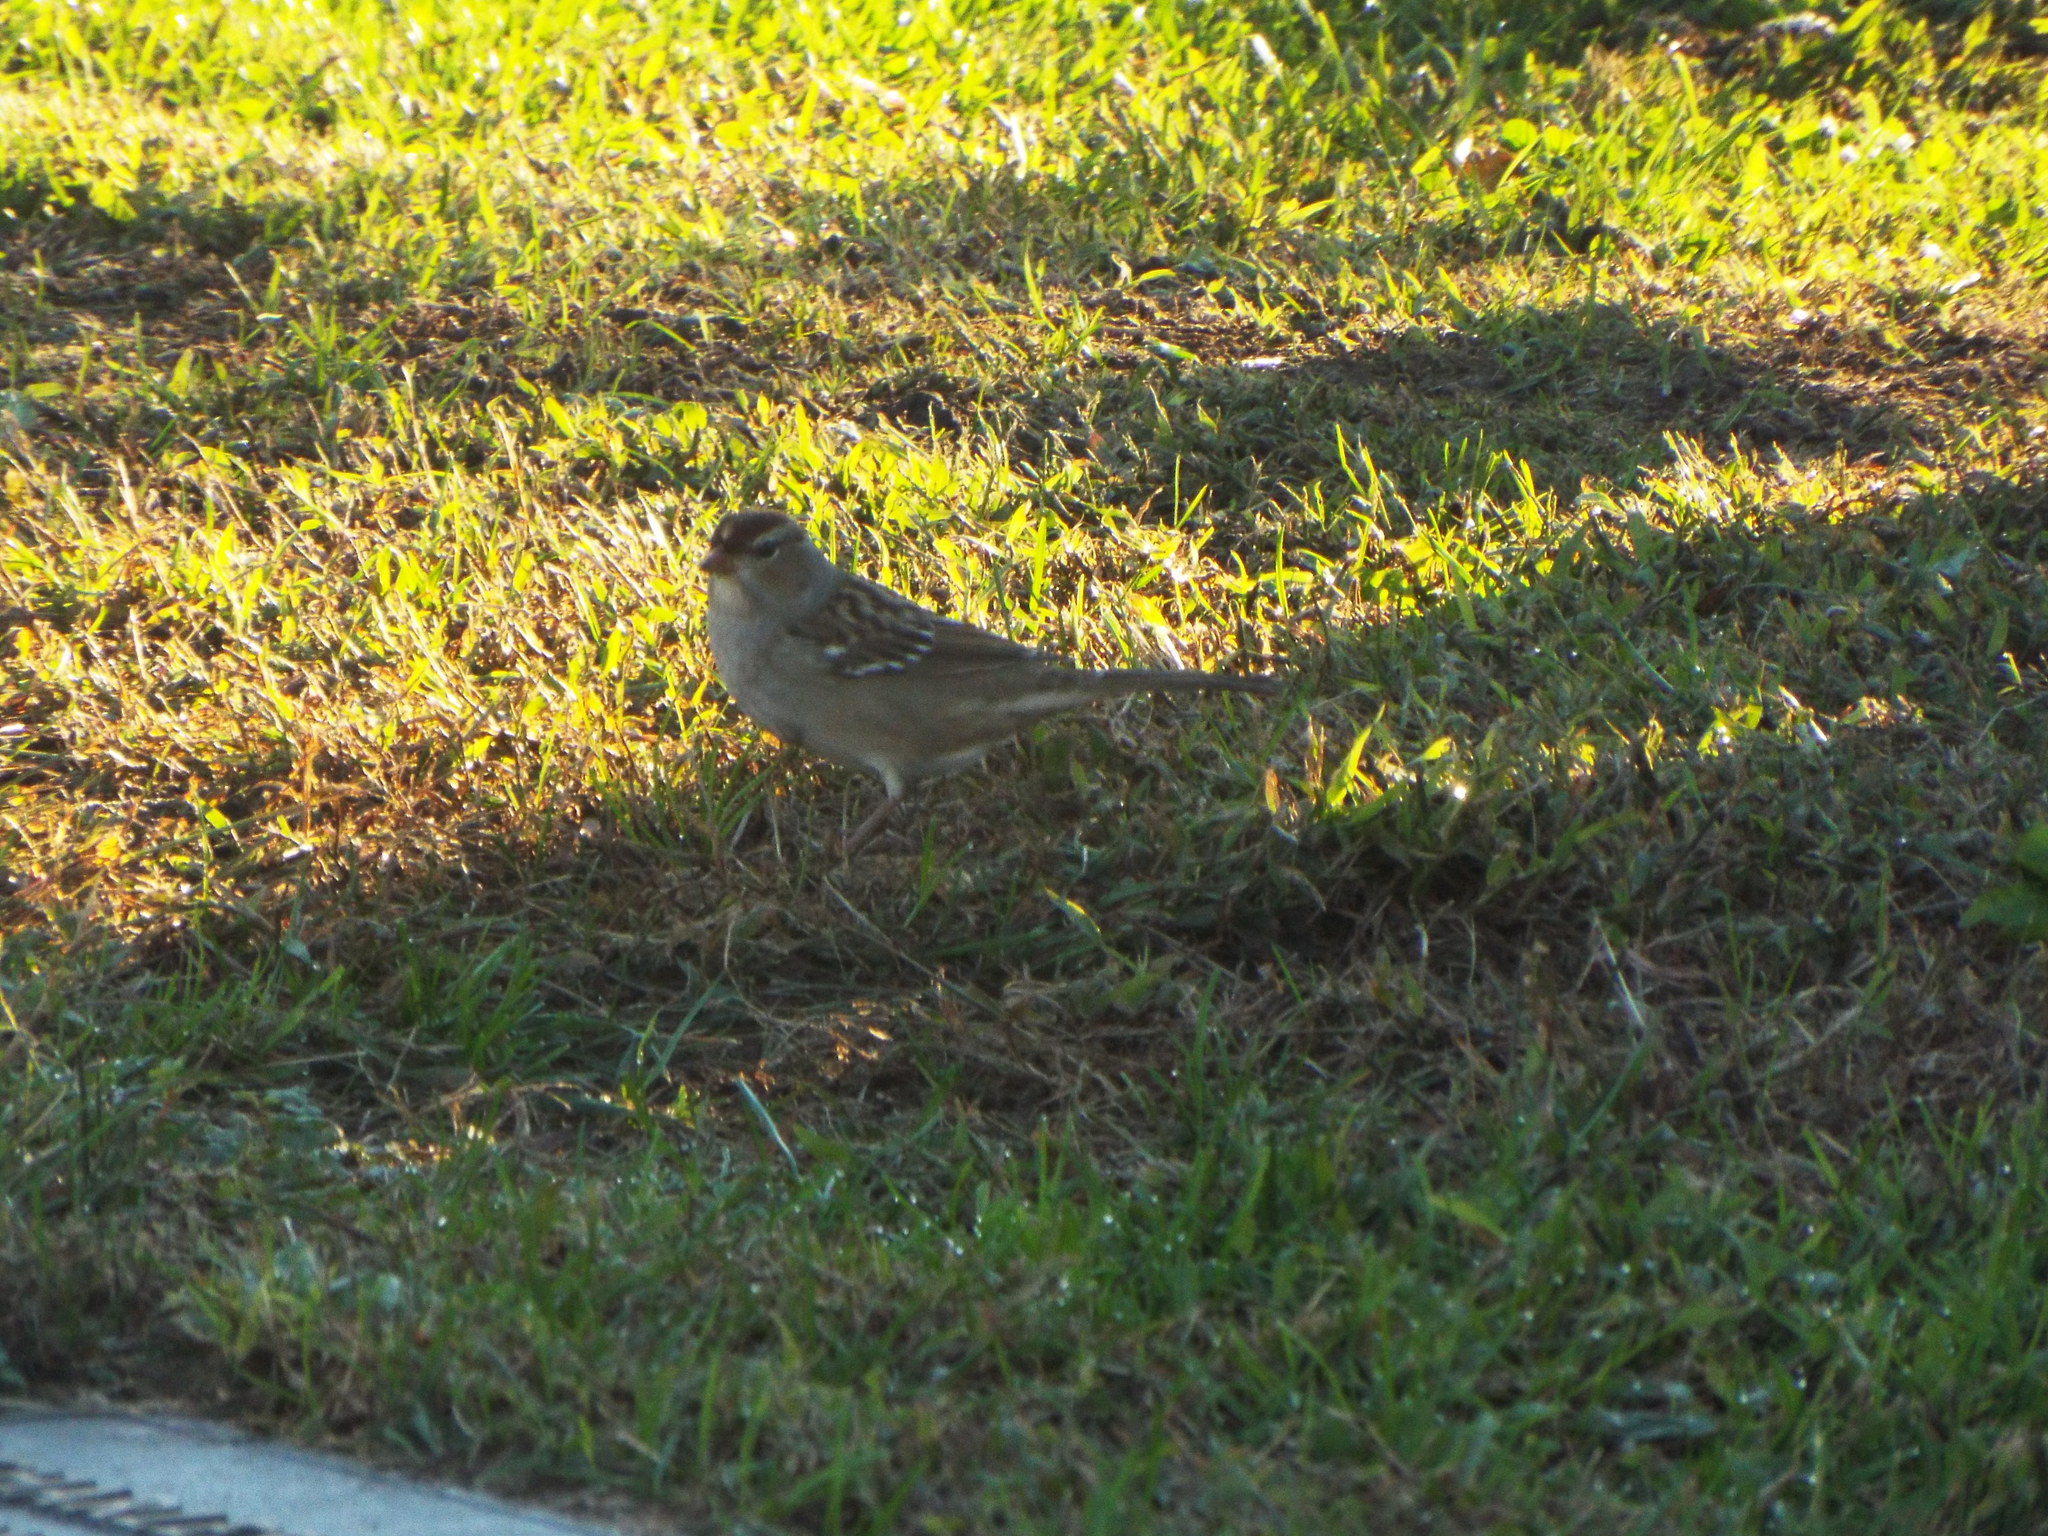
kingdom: Animalia
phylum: Chordata
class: Aves
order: Passeriformes
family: Passerellidae
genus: Zonotrichia
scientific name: Zonotrichia leucophrys
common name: White-crowned sparrow
